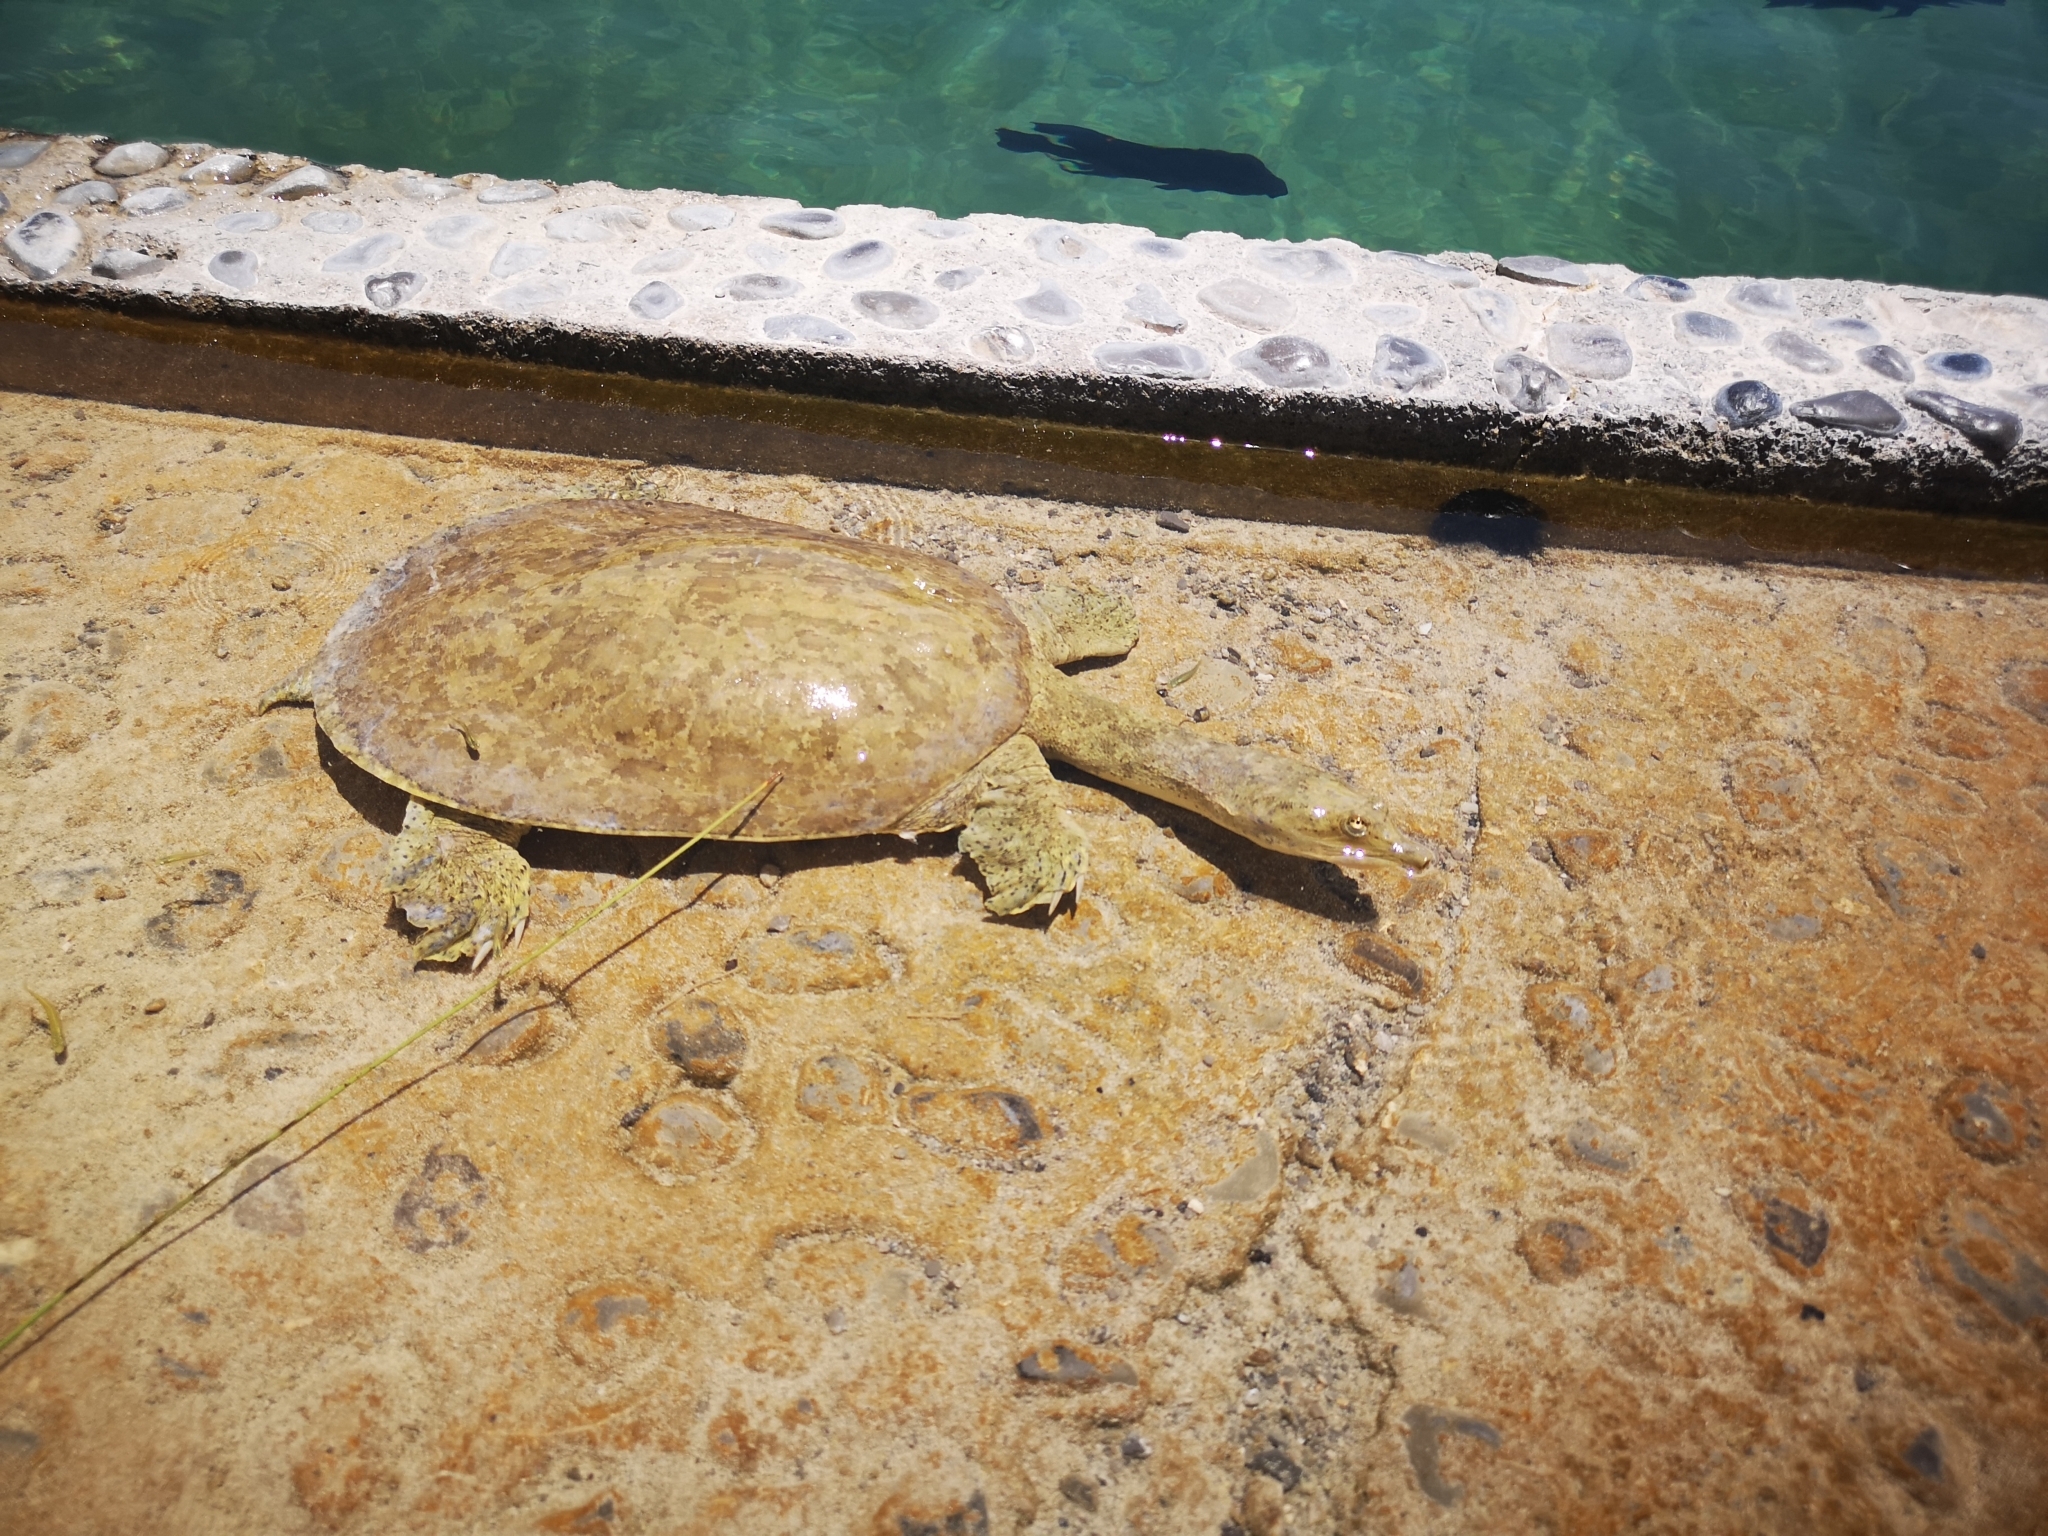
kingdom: Animalia
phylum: Chordata
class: Testudines
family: Trionychidae
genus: Apalone
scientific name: Apalone spinifera
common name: Spiny softshell turtle
